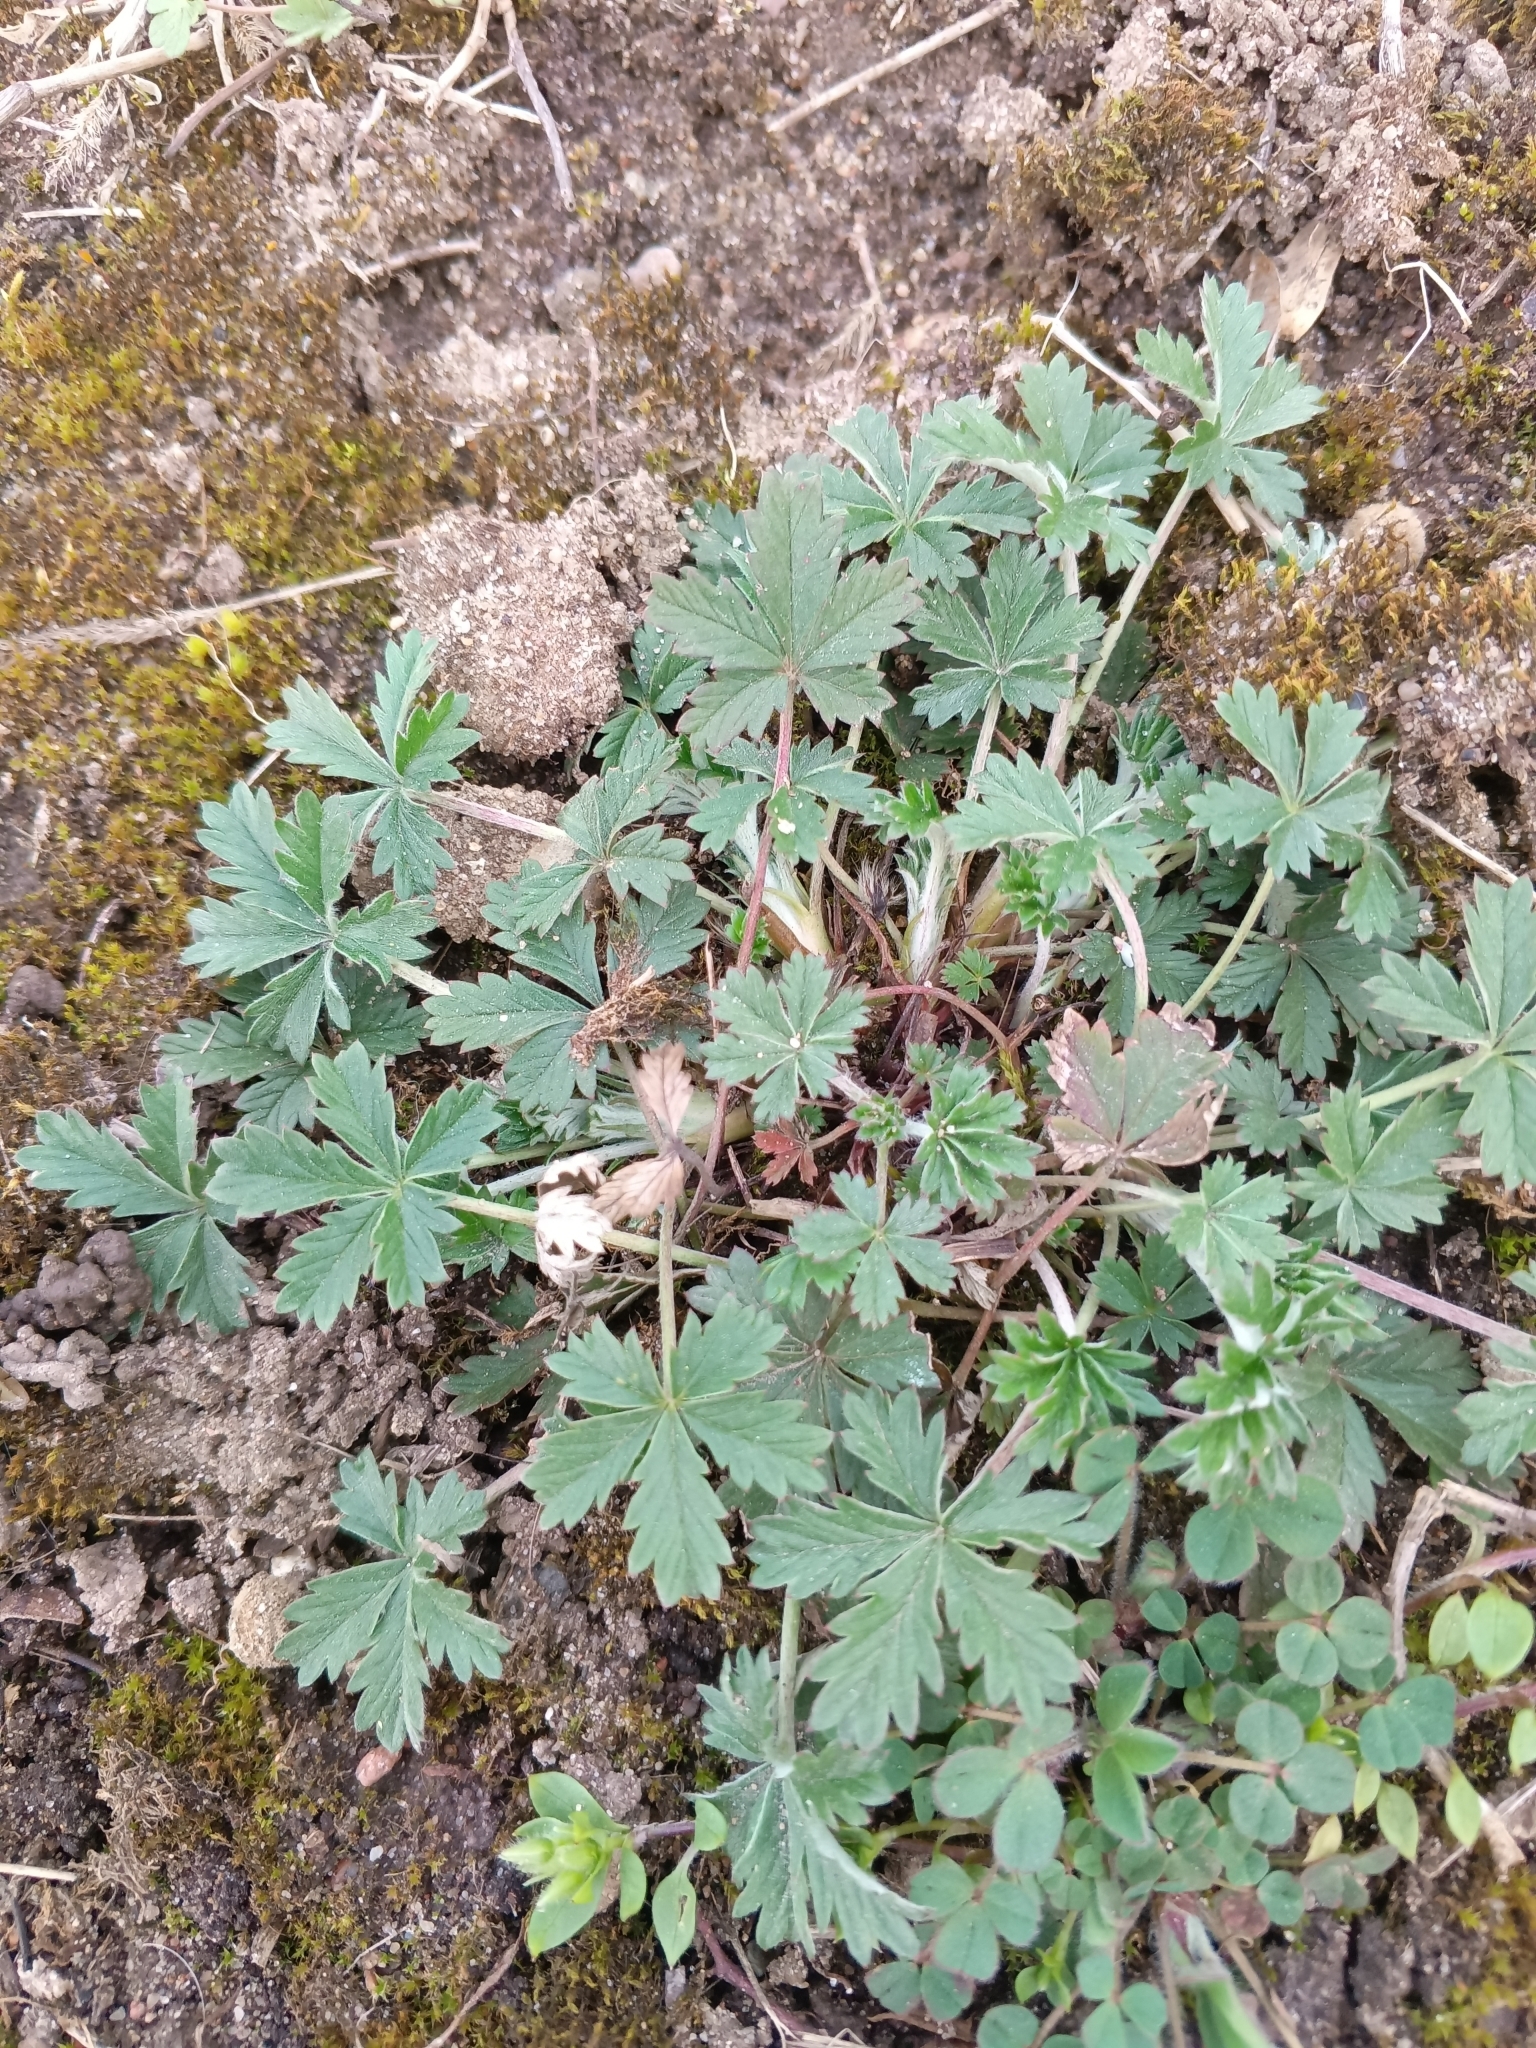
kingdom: Plantae
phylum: Tracheophyta
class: Magnoliopsida
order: Rosales
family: Rosaceae
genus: Potentilla
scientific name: Potentilla argentea
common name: Hoary cinquefoil
